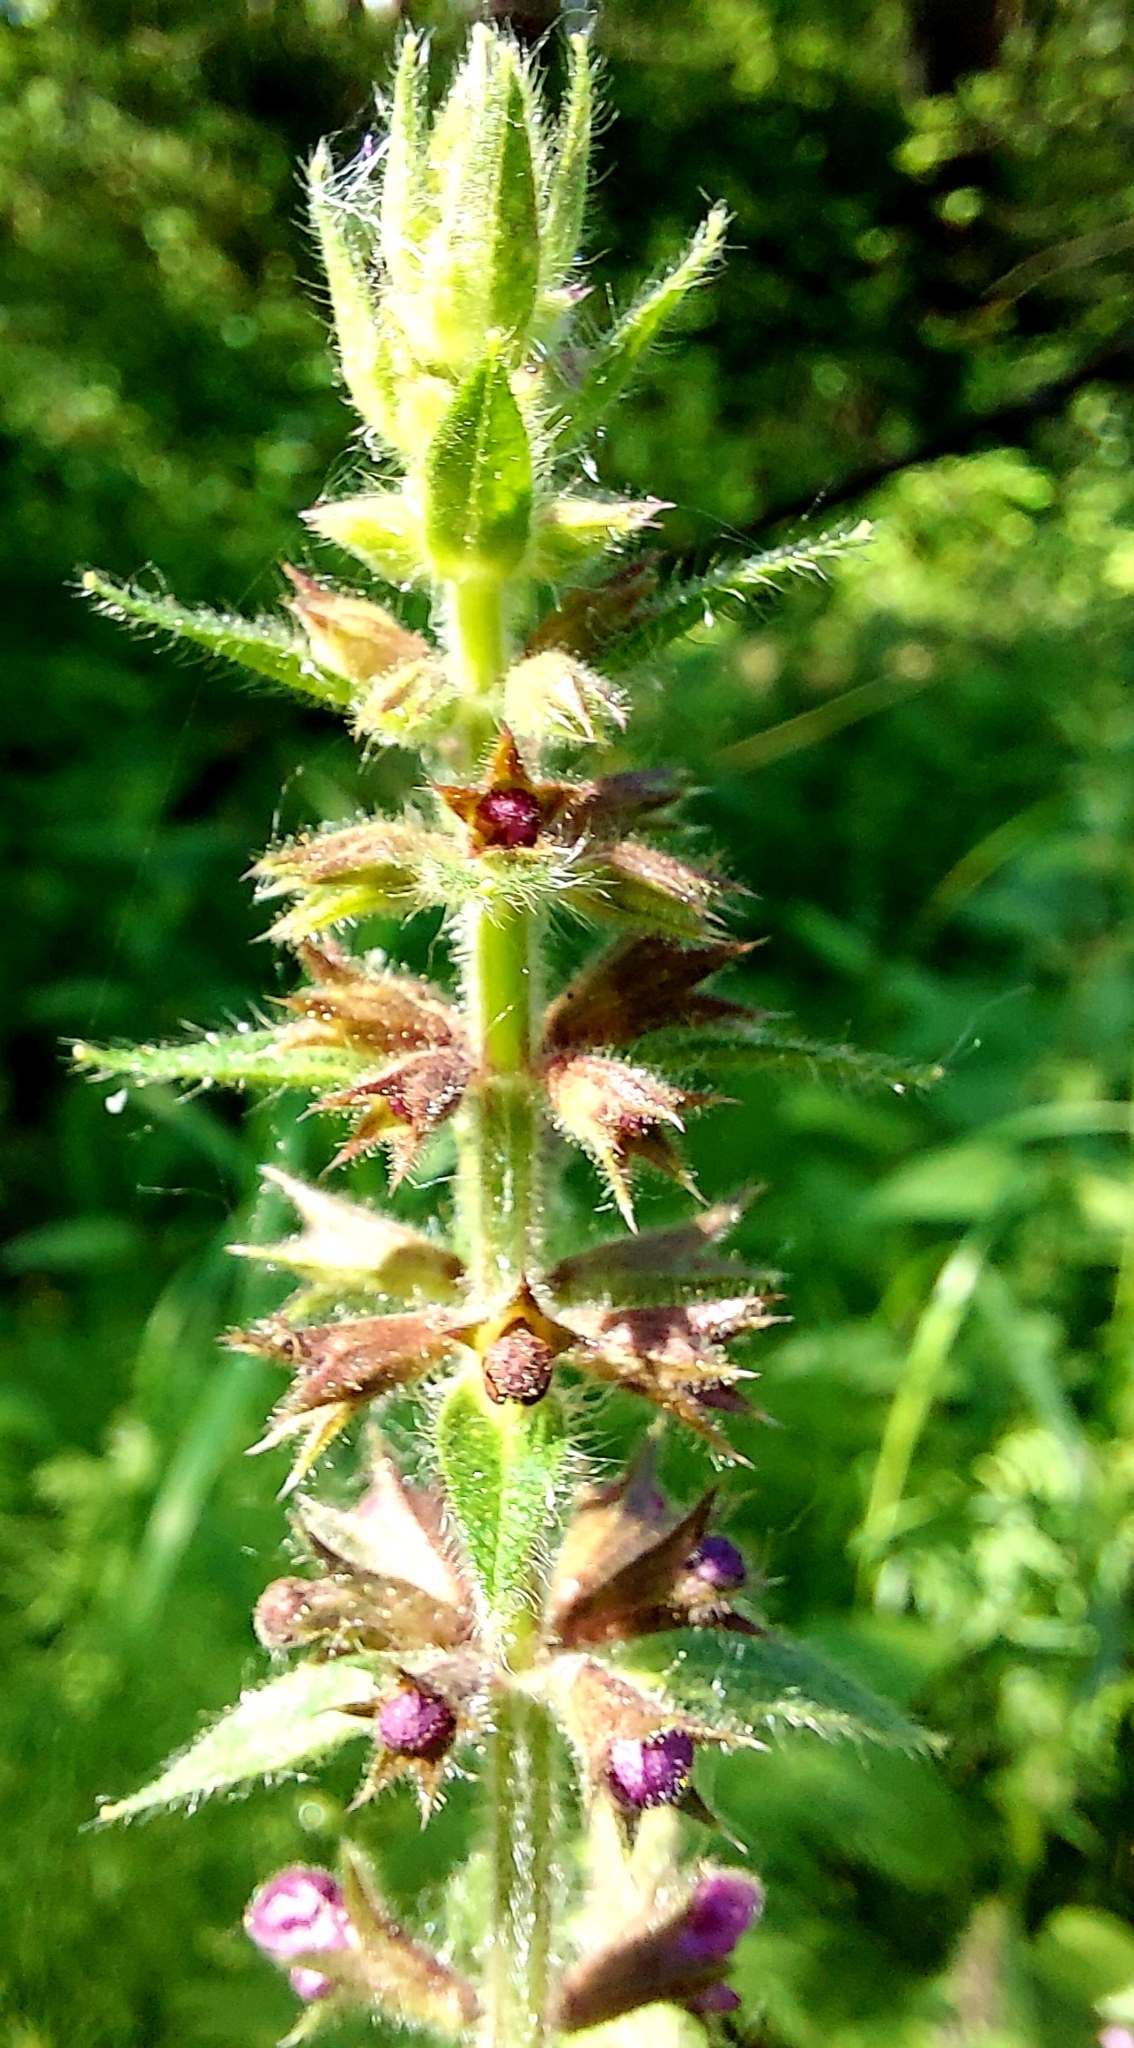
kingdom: Plantae
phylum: Tracheophyta
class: Magnoliopsida
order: Lamiales
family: Lamiaceae
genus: Stachys
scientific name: Stachys sylvatica
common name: Hedge woundwort
